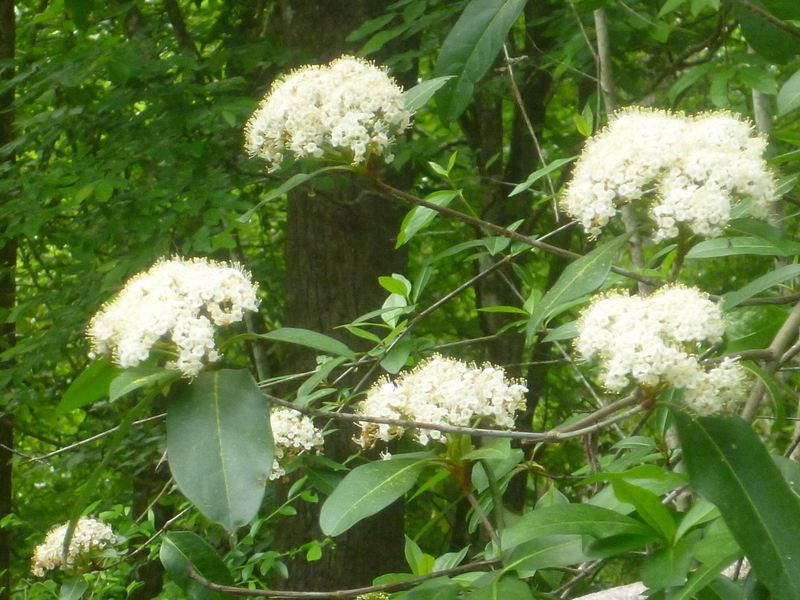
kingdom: Plantae
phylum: Tracheophyta
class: Magnoliopsida
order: Dipsacales
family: Viburnaceae
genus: Viburnum
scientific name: Viburnum nudum
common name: Possum haw
